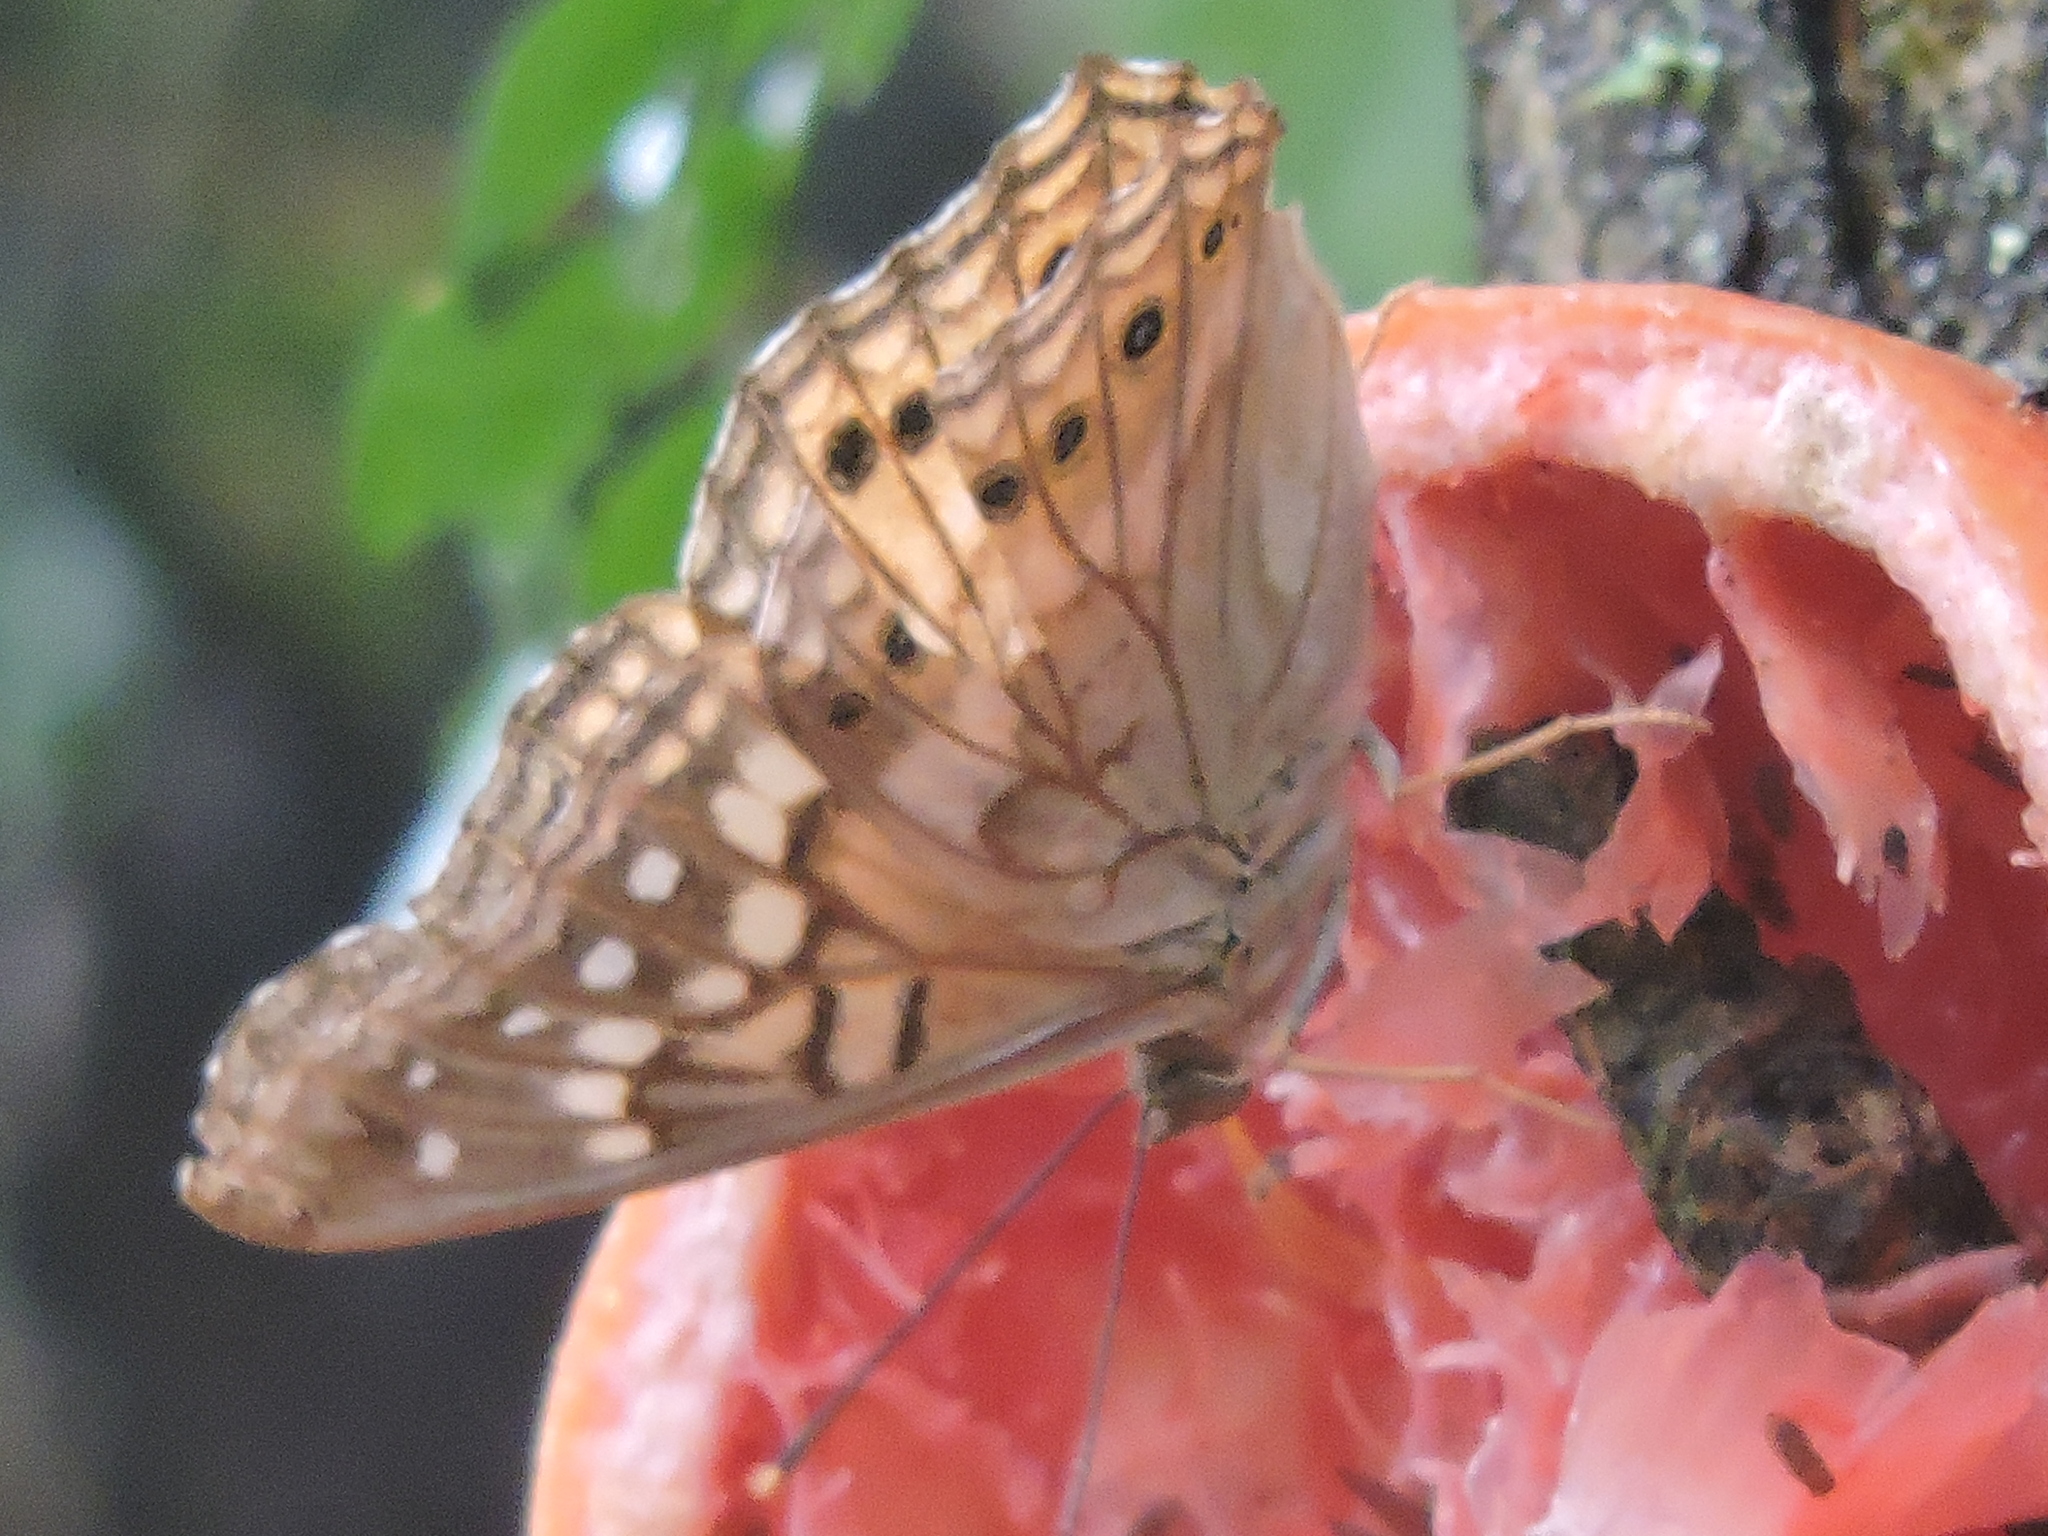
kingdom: Animalia
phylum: Arthropoda
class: Insecta
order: Lepidoptera
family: Nymphalidae
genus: Asterocampa
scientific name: Asterocampa clyton
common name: Tawny emperor
